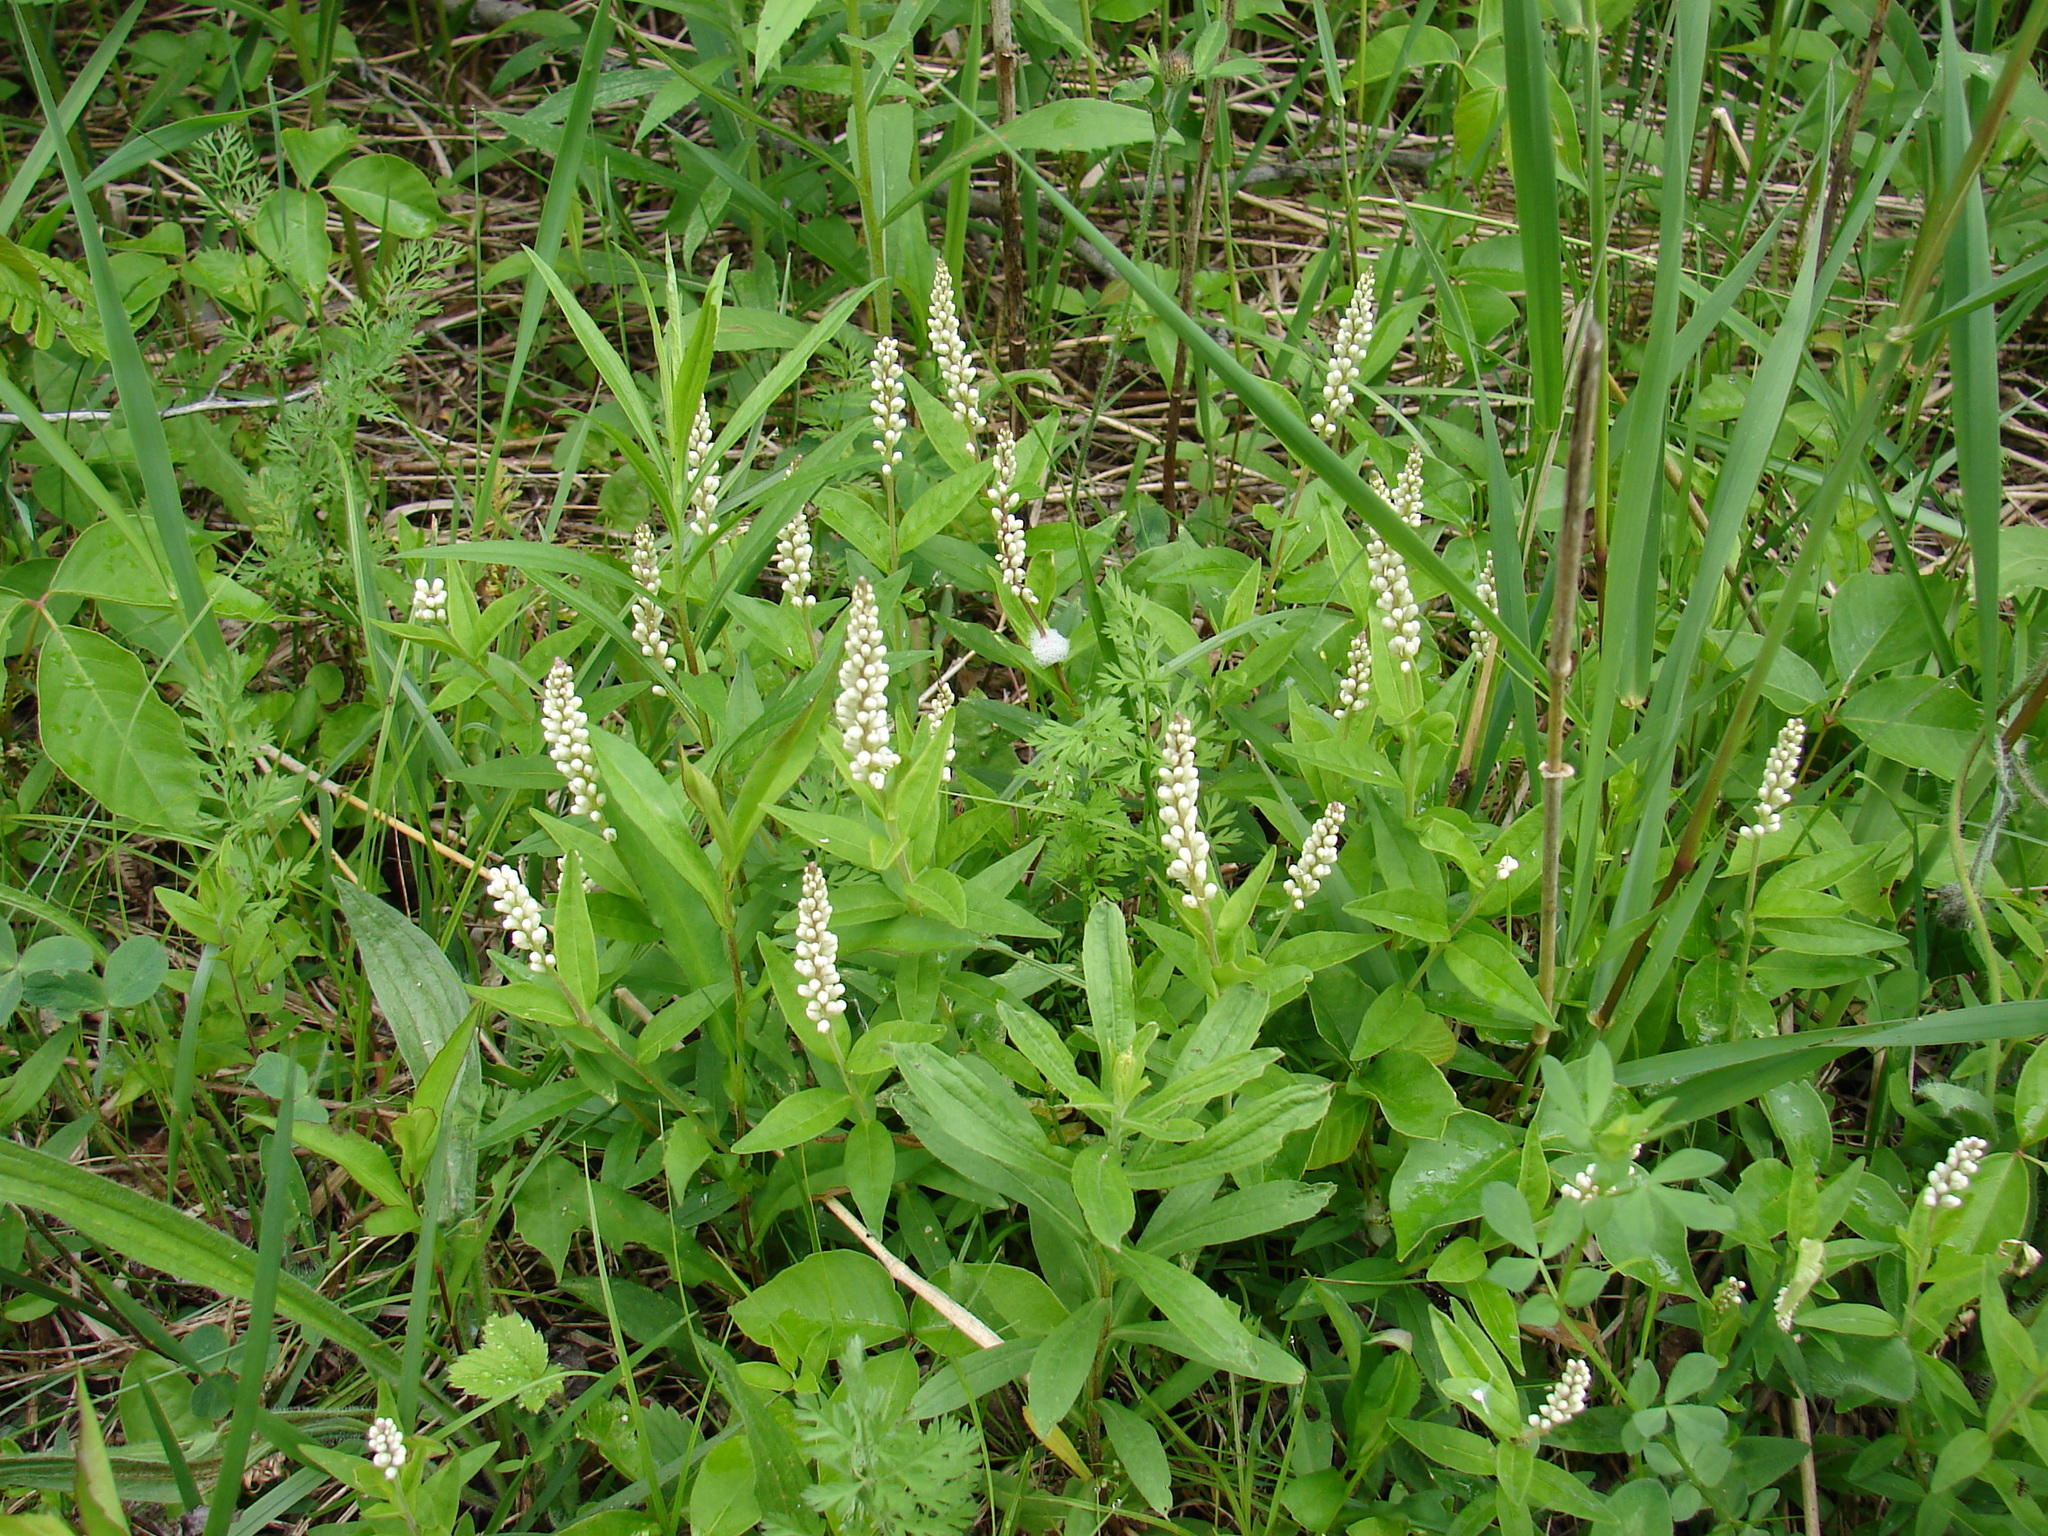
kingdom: Plantae
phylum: Tracheophyta
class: Magnoliopsida
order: Fabales
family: Polygalaceae
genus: Polygala
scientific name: Polygala senega
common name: Seneca snakeroot
